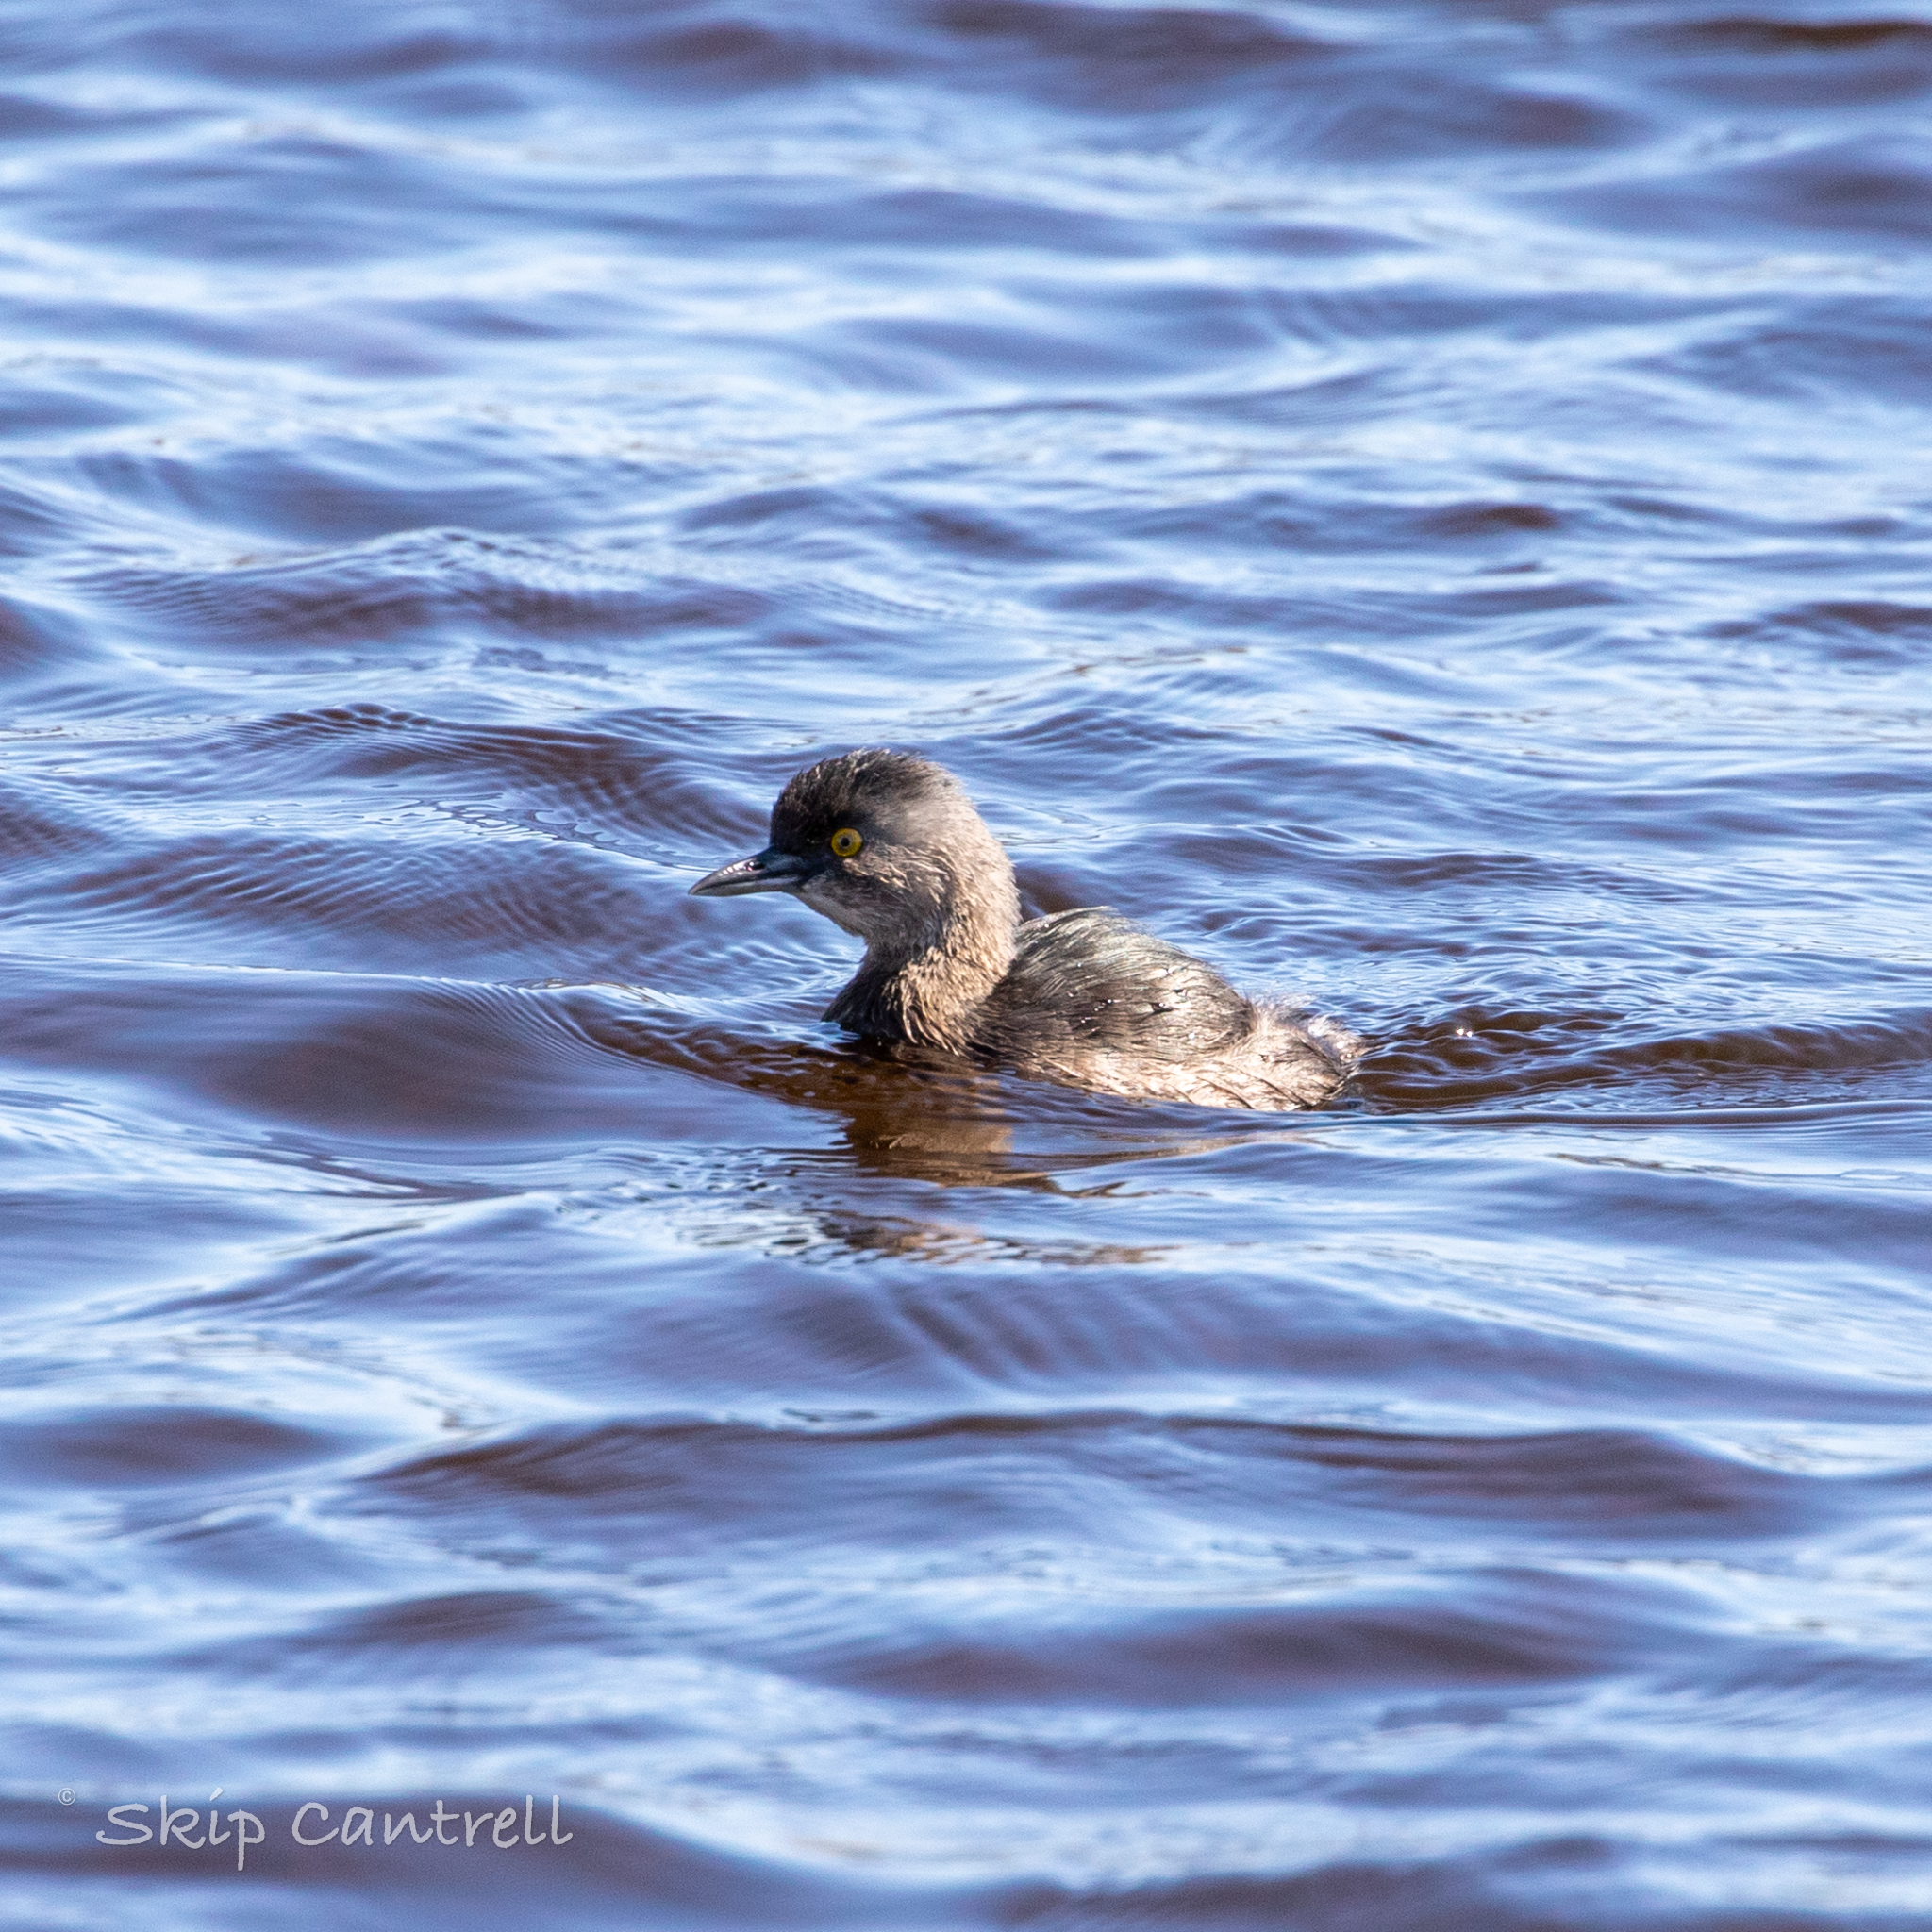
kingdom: Animalia
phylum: Chordata
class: Aves
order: Podicipediformes
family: Podicipedidae
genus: Tachybaptus
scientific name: Tachybaptus dominicus
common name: Least grebe
